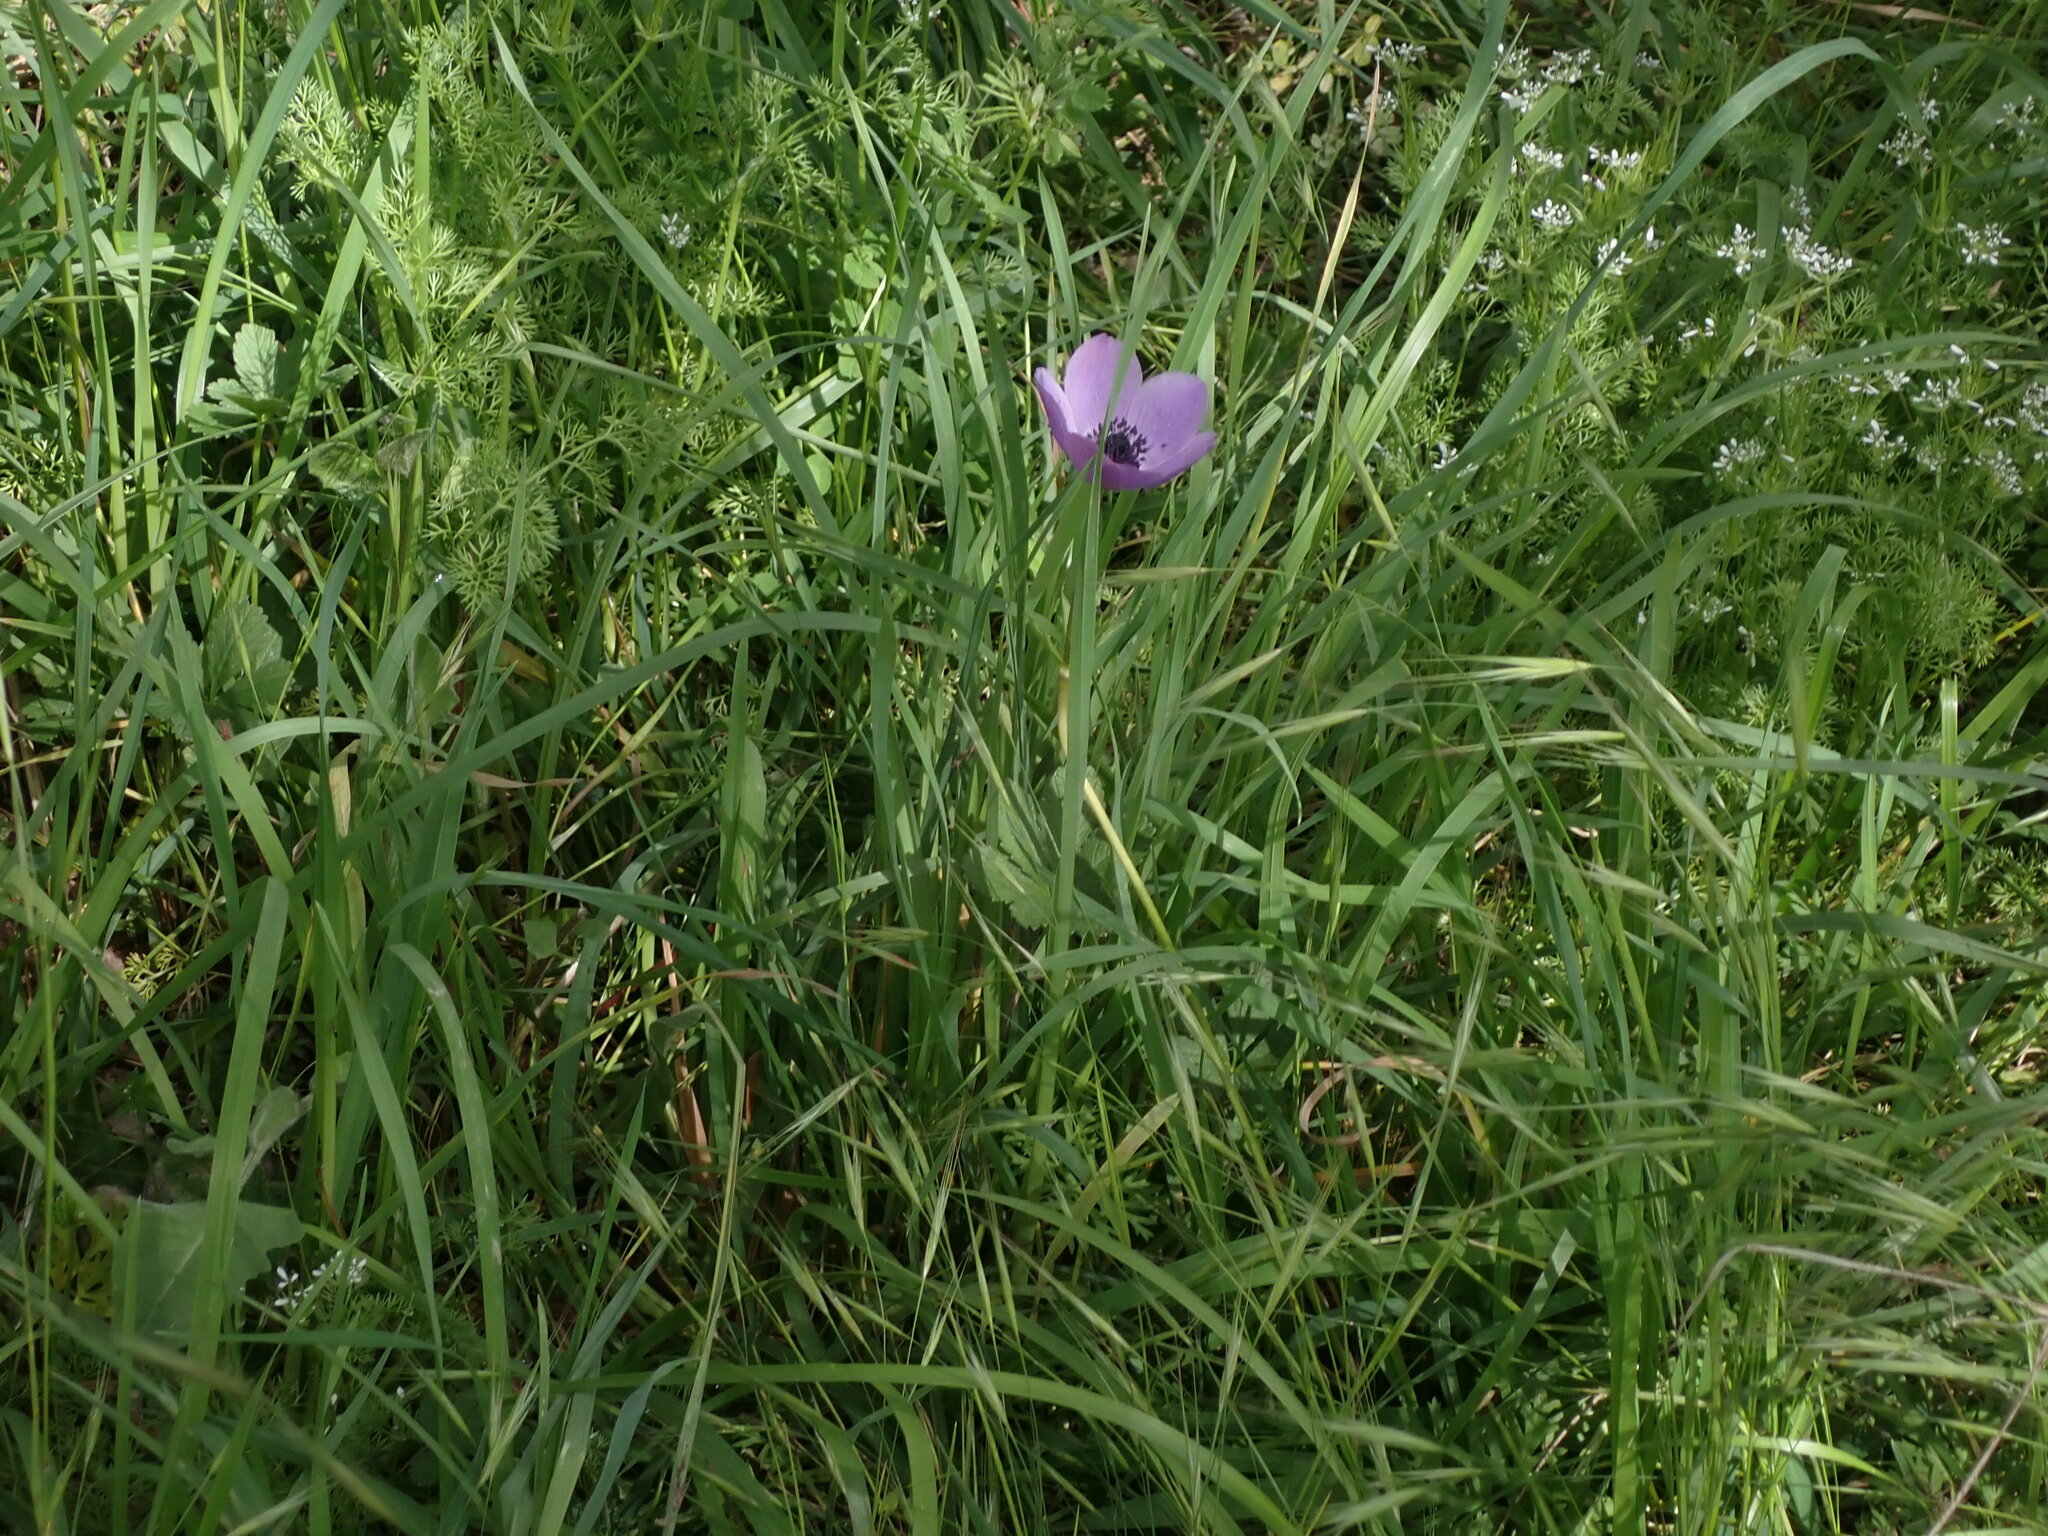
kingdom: Plantae
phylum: Tracheophyta
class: Magnoliopsida
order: Ranunculales
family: Ranunculaceae
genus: Anemone
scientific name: Anemone coronaria
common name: Poppy anemone
